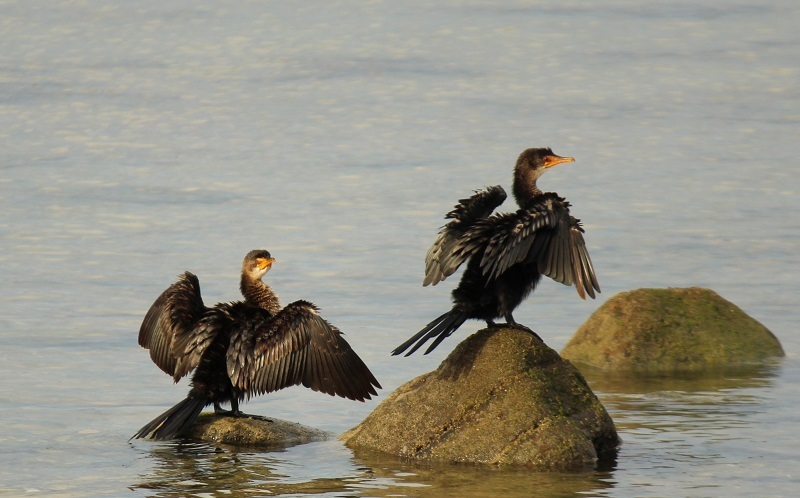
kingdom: Animalia
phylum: Chordata
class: Aves
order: Suliformes
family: Phalacrocoracidae
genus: Microcarbo
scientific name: Microcarbo africanus
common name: Long-tailed cormorant
